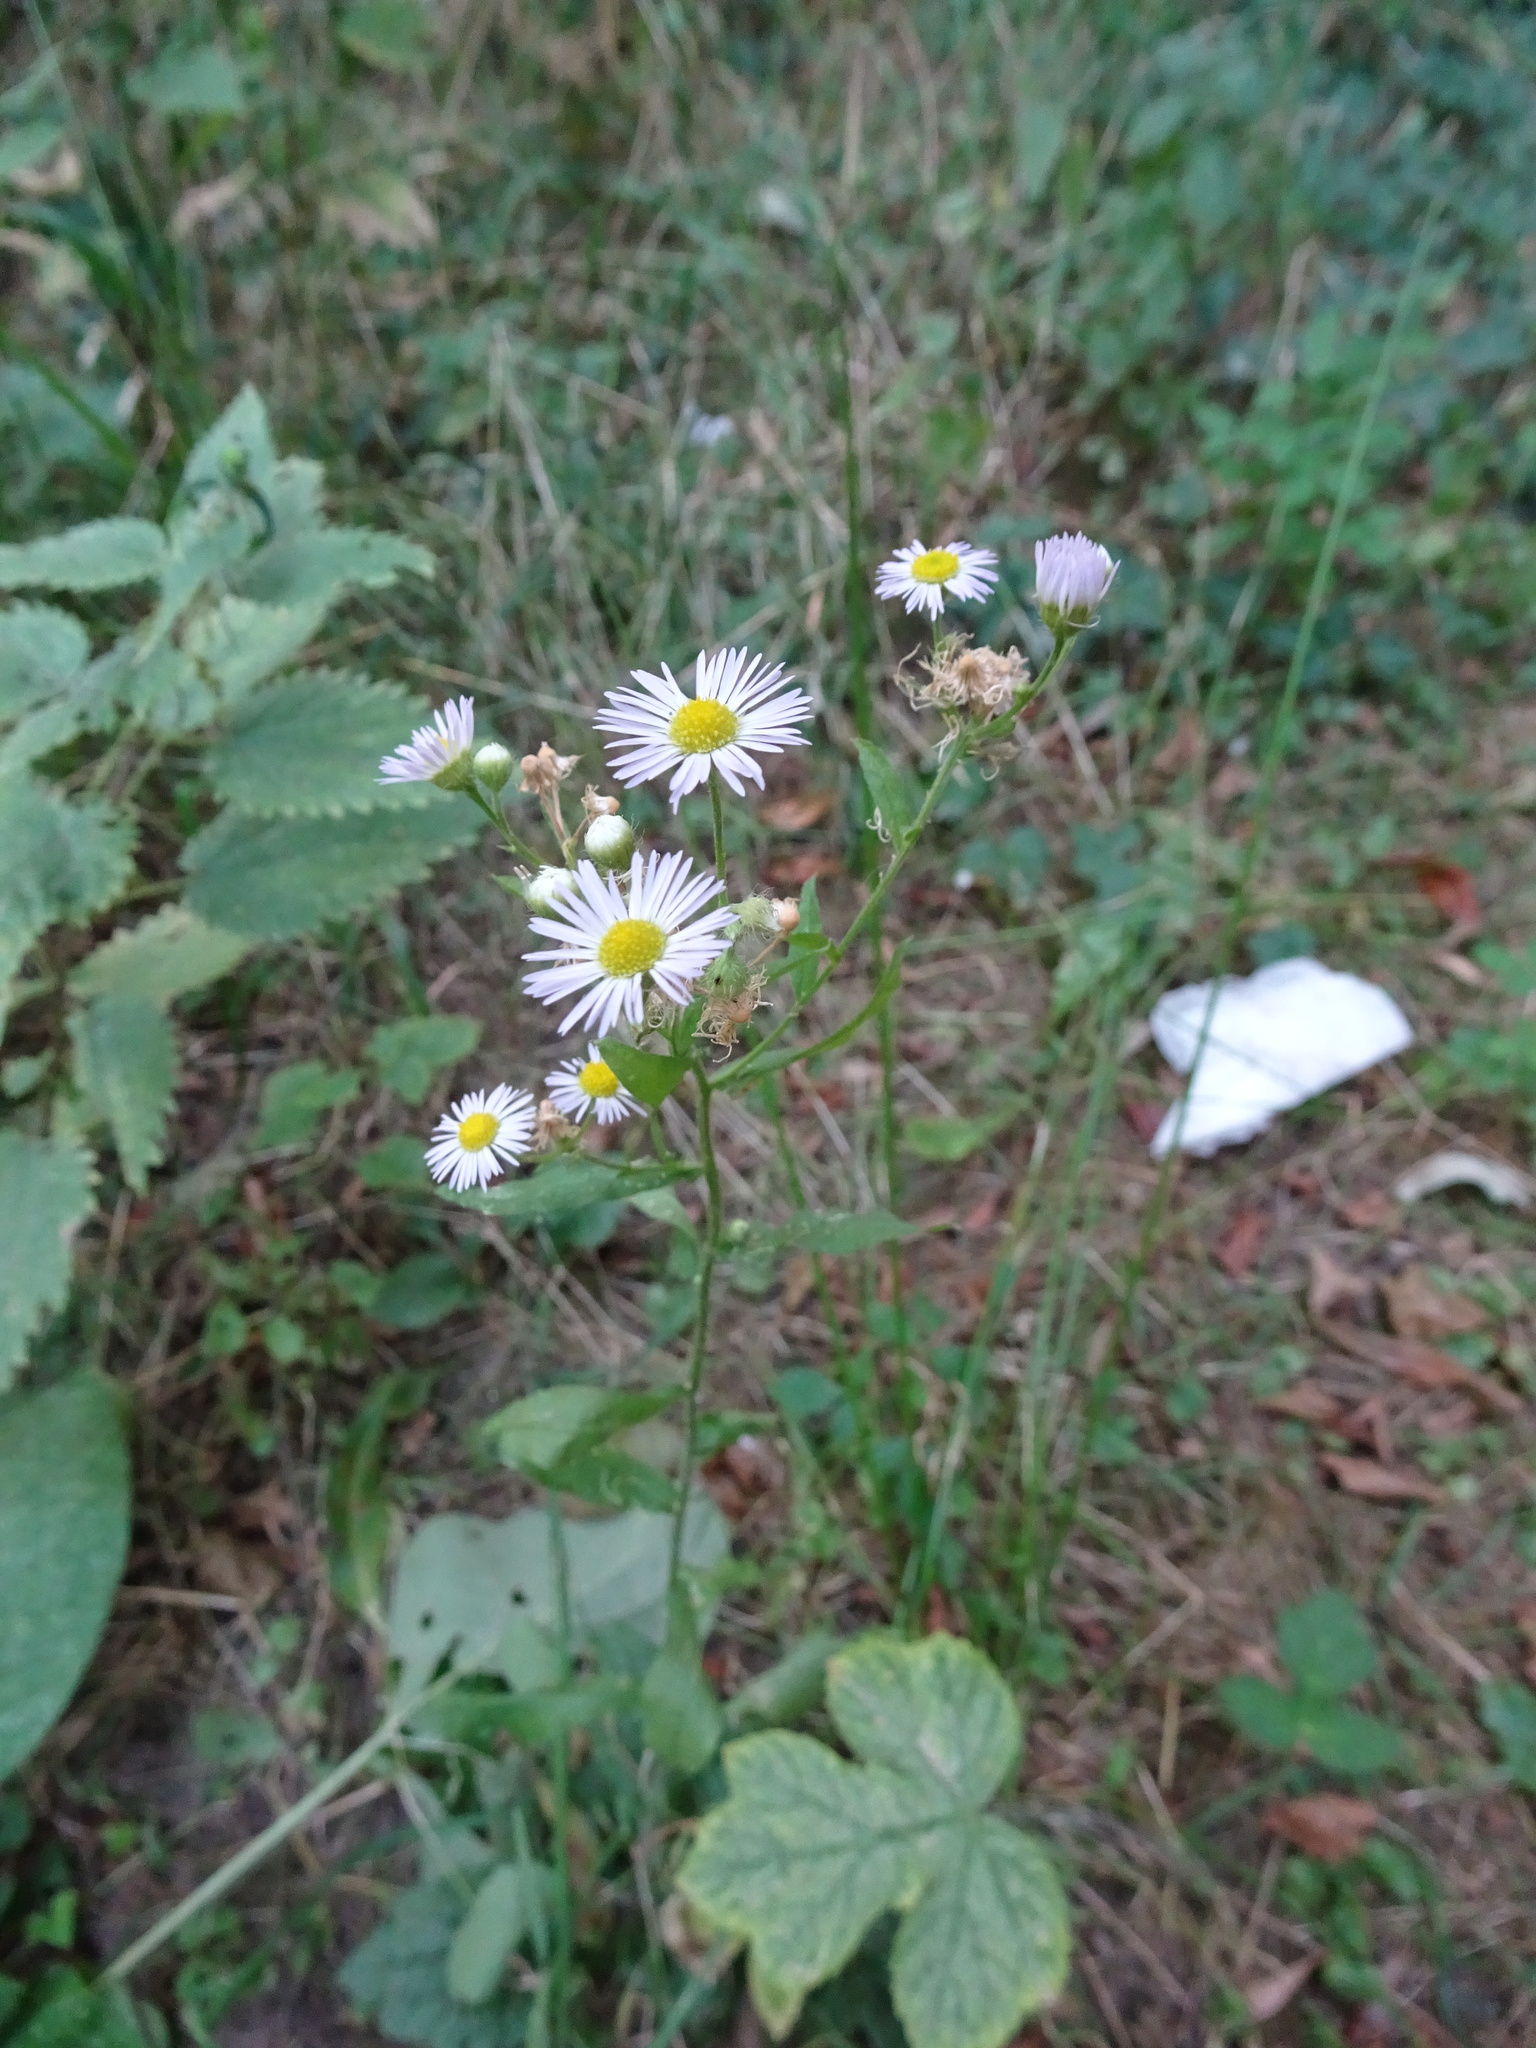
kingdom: Plantae
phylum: Tracheophyta
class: Magnoliopsida
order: Asterales
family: Asteraceae
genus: Erigeron
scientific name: Erigeron annuus
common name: Tall fleabane
